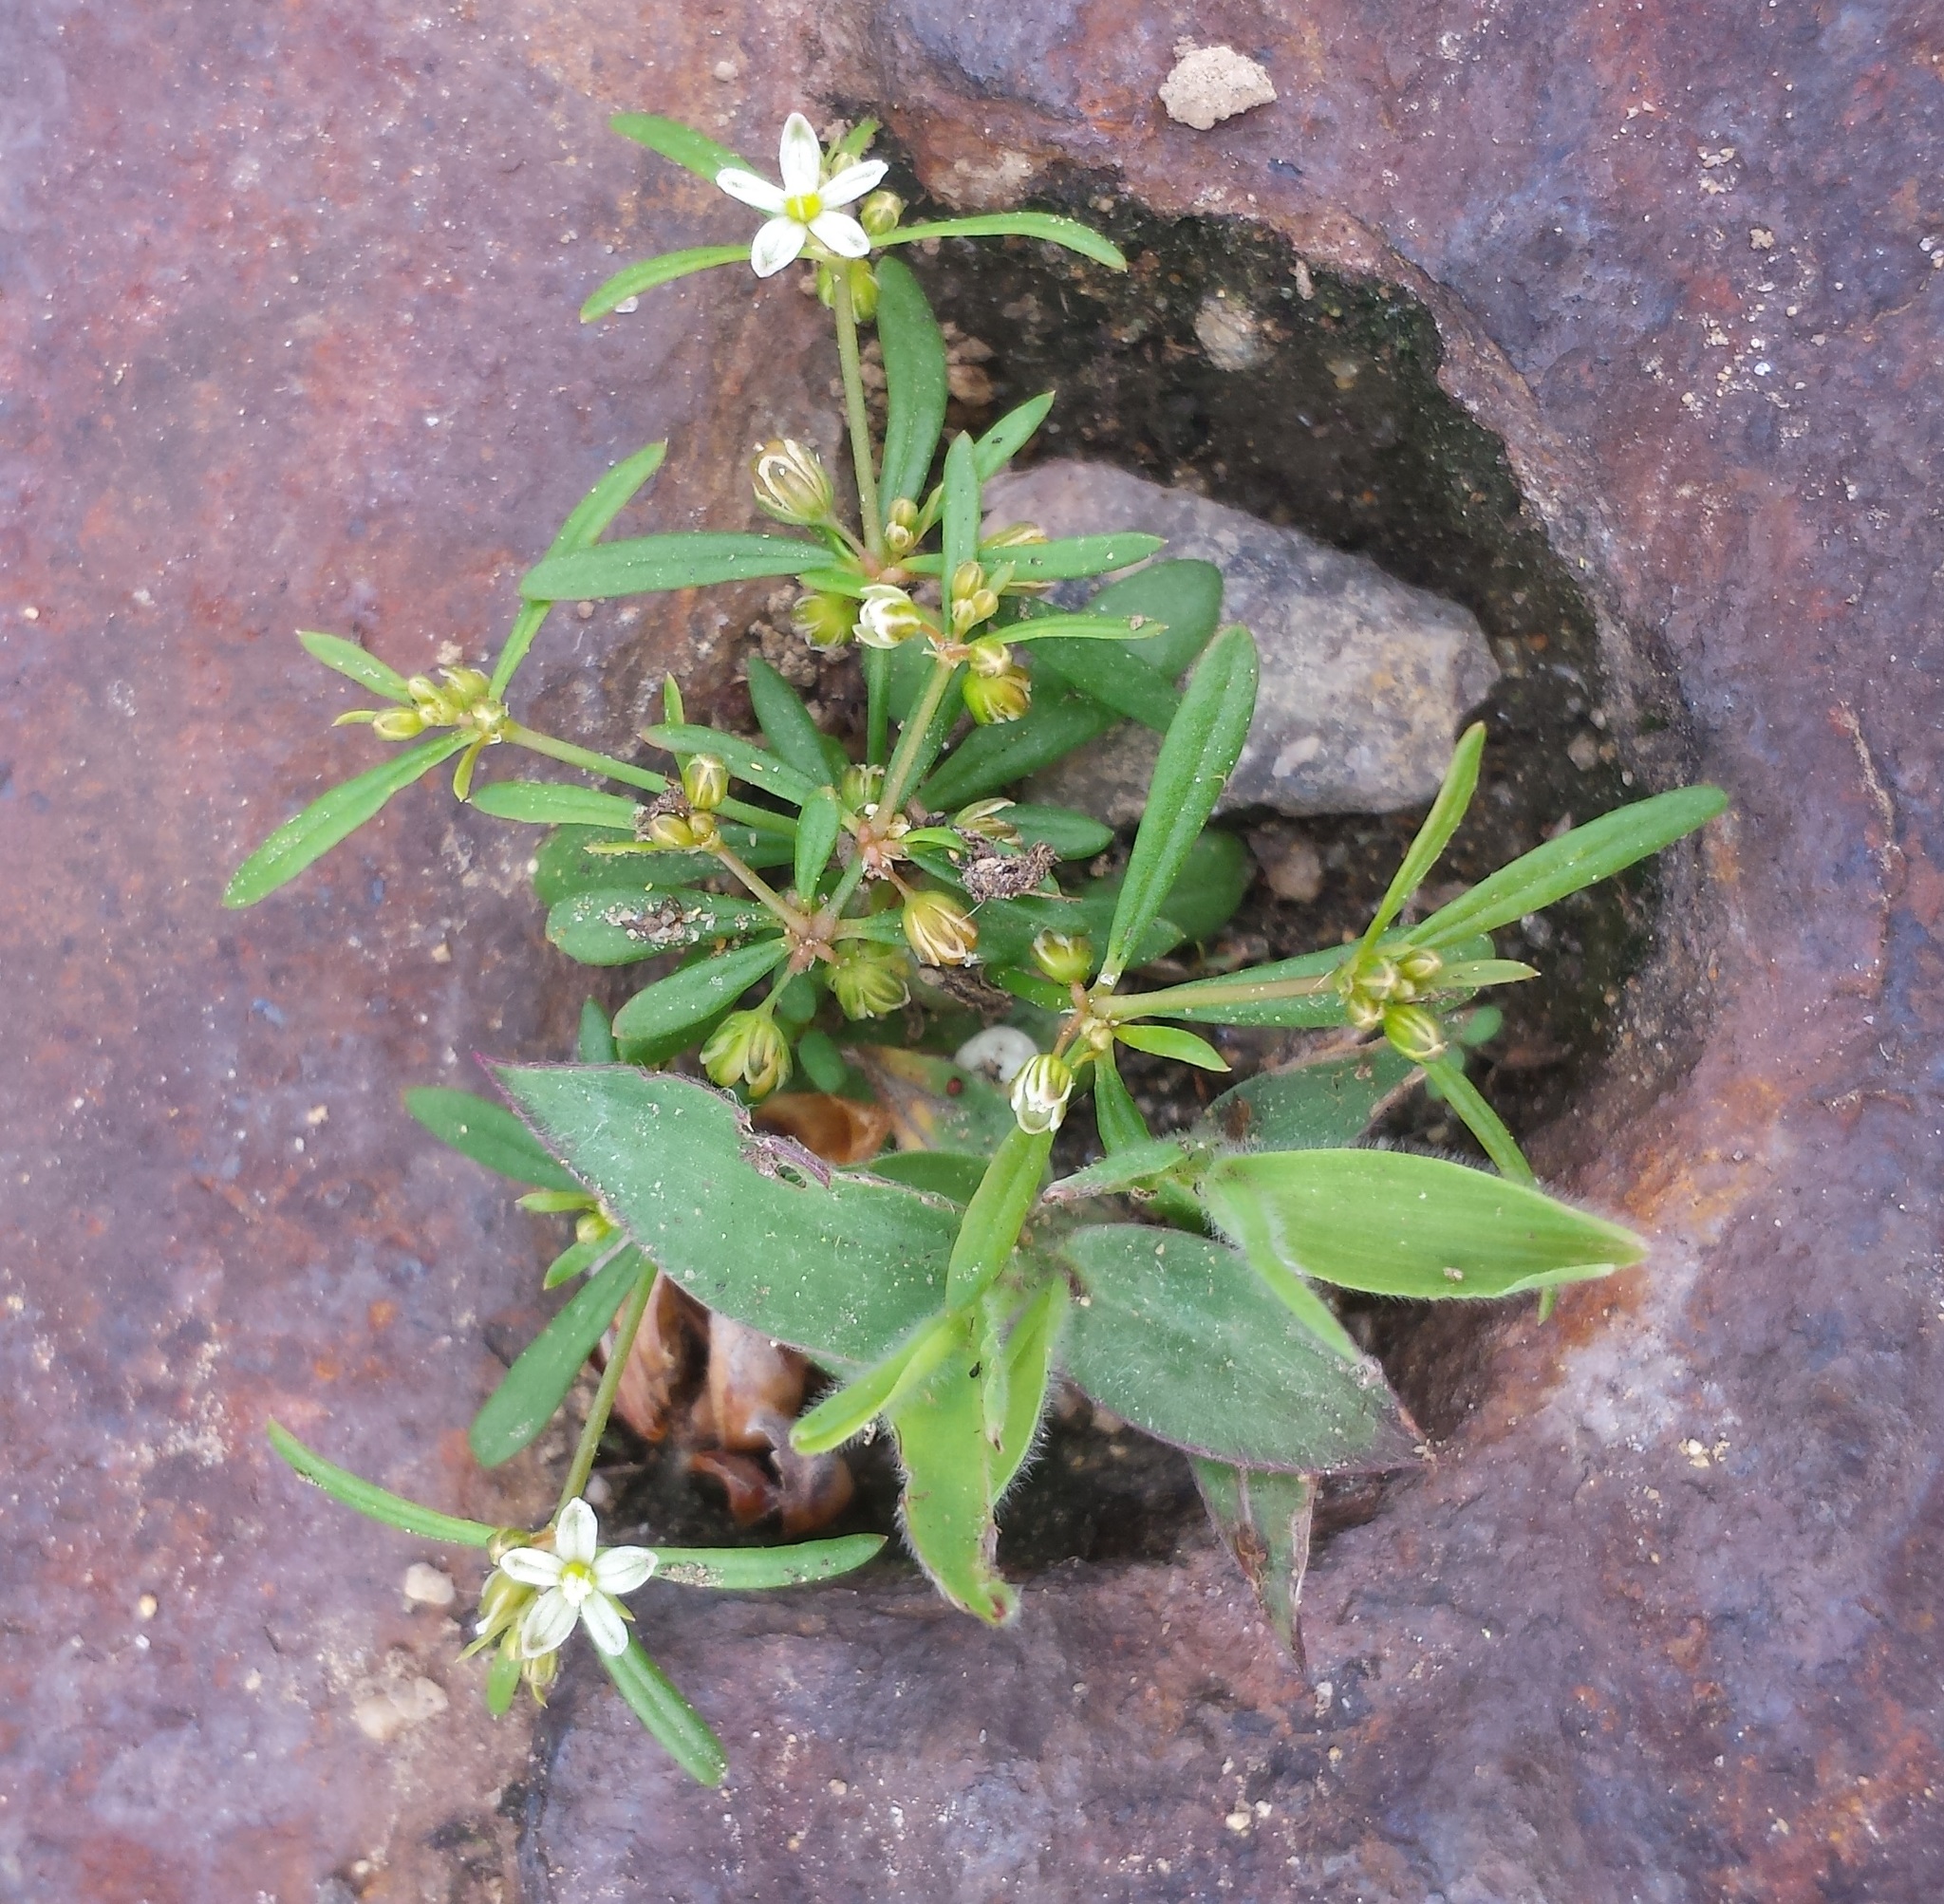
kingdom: Plantae
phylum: Tracheophyta
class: Magnoliopsida
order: Caryophyllales
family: Molluginaceae
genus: Mollugo
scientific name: Mollugo verticillata
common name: Green carpetweed
